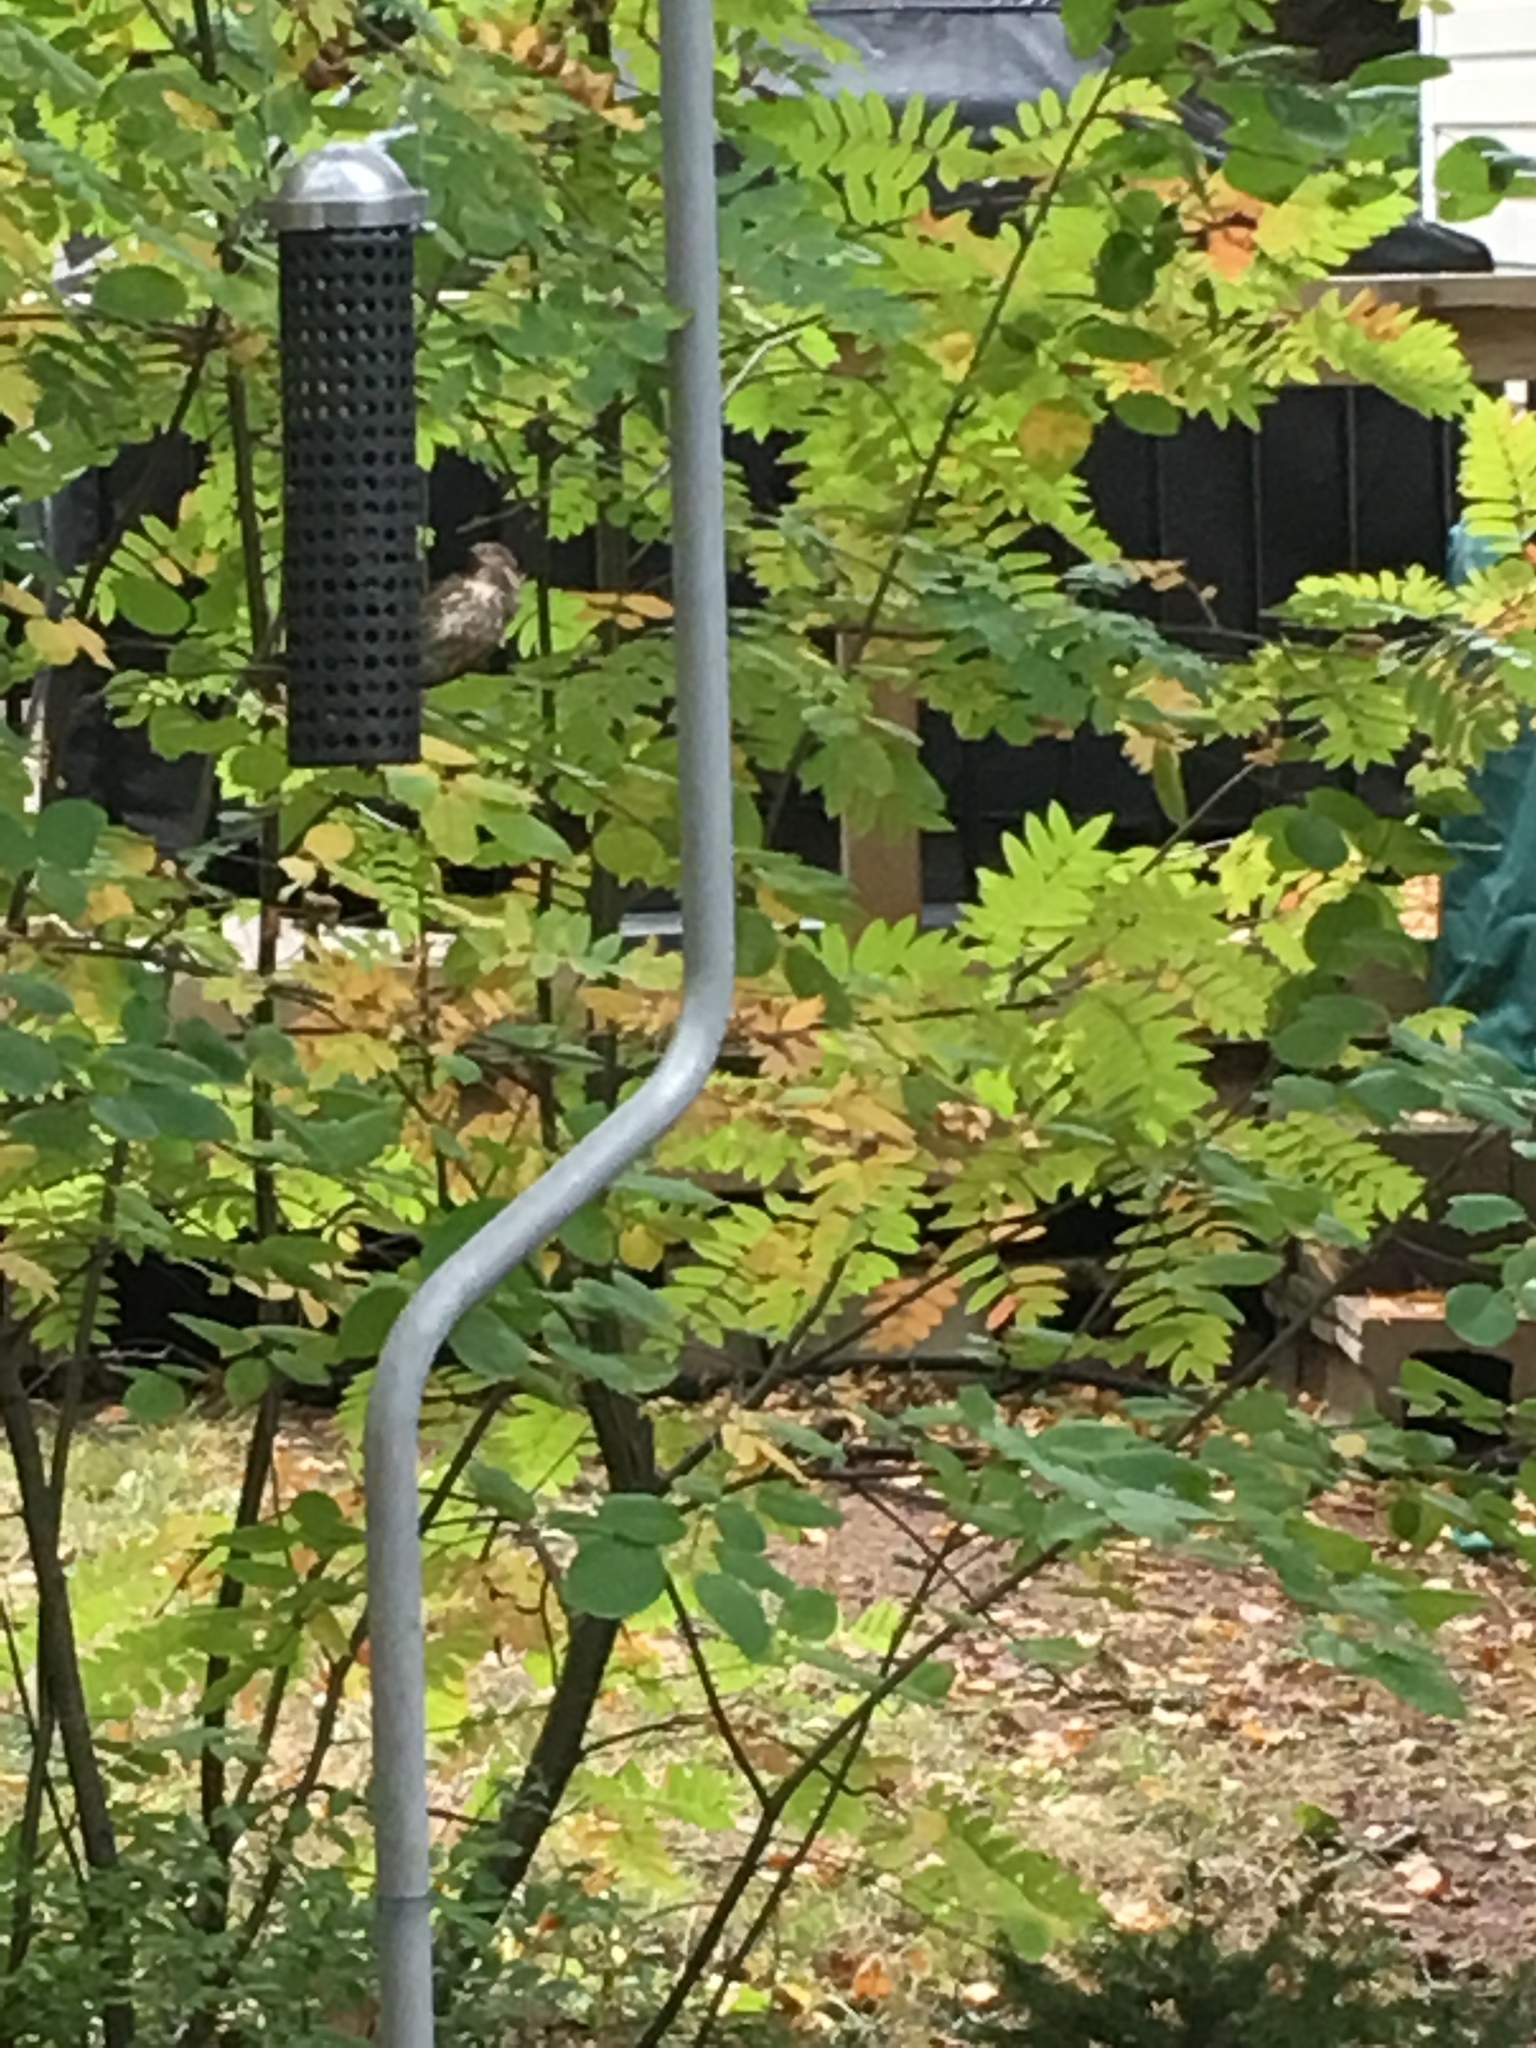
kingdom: Animalia
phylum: Chordata
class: Aves
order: Passeriformes
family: Fringillidae
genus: Haemorhous
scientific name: Haemorhous purpureus
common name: Purple finch
